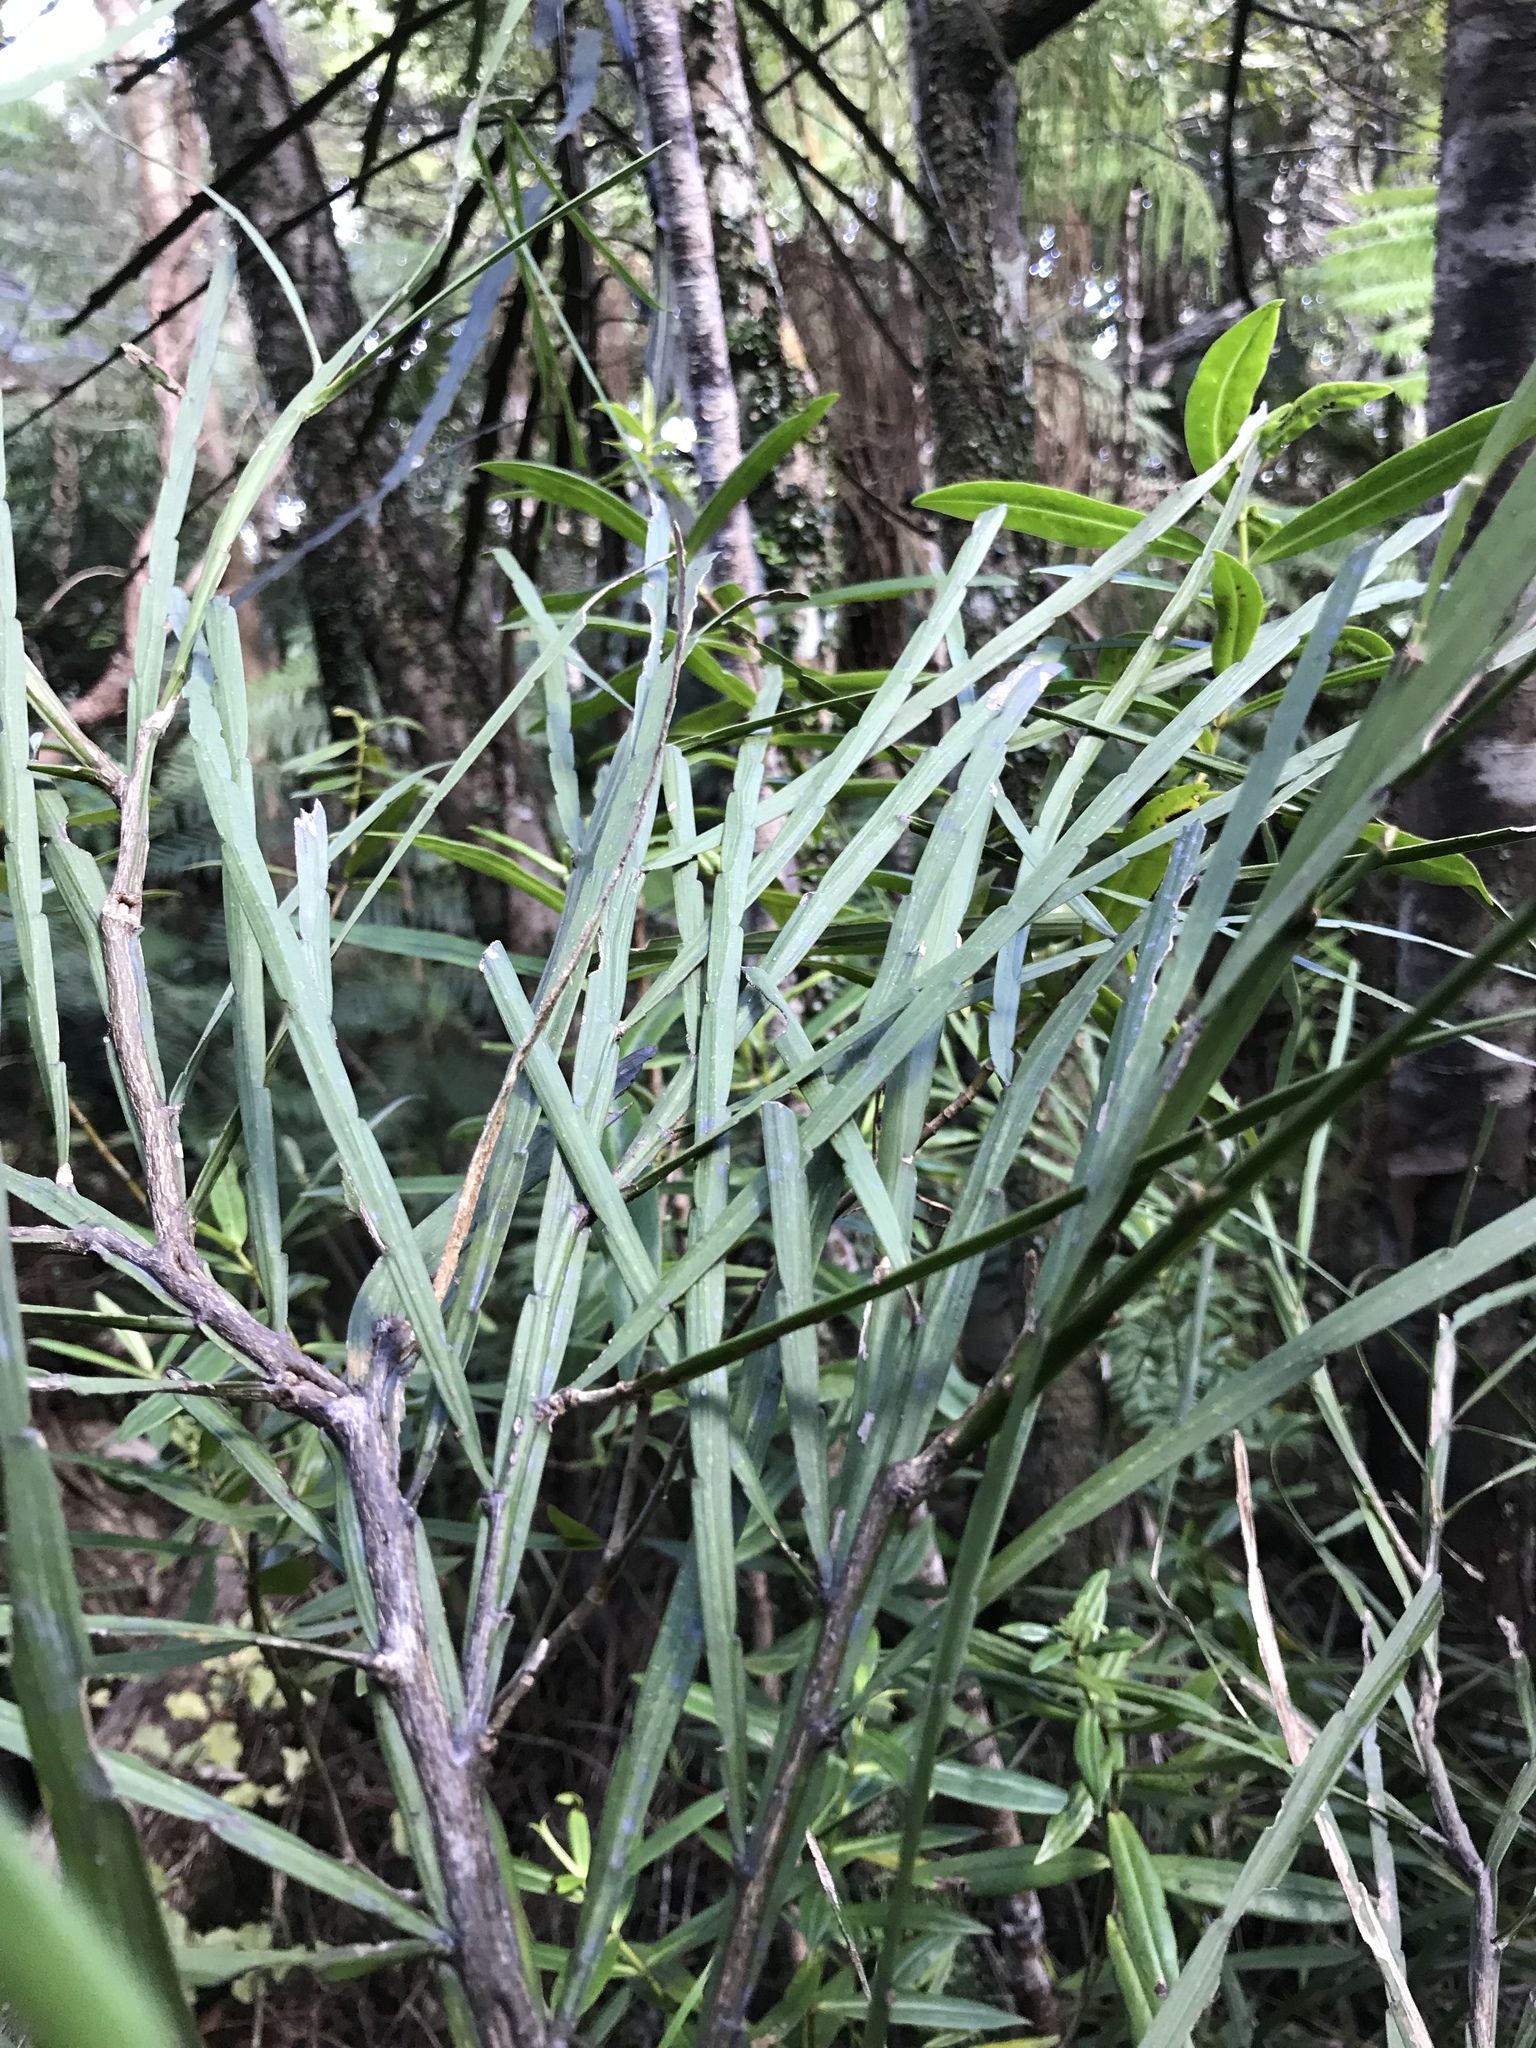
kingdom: Plantae
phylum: Tracheophyta
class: Magnoliopsida
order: Fabales
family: Fabaceae
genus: Carmichaelia
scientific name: Carmichaelia australis
